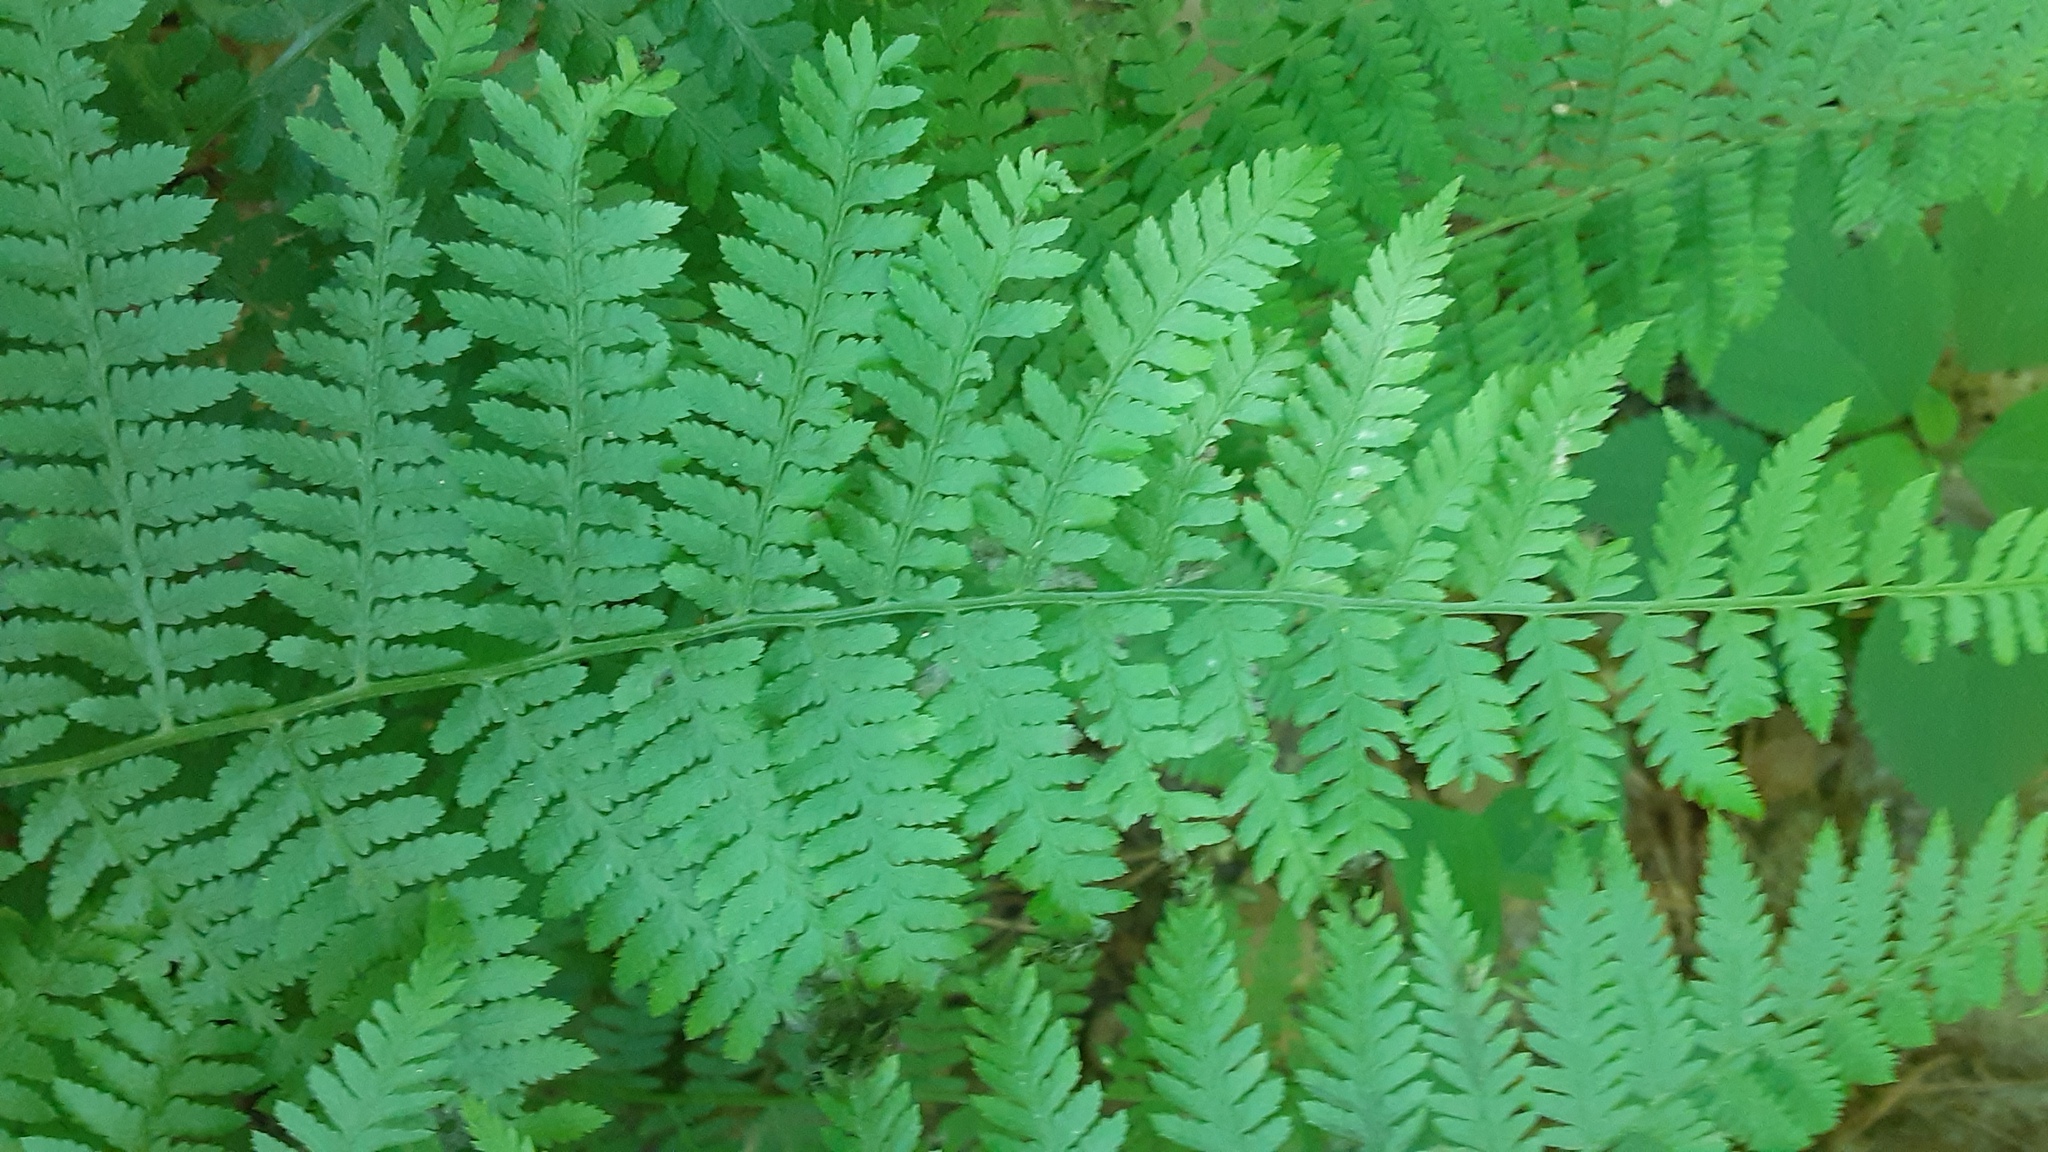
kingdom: Plantae
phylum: Tracheophyta
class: Polypodiopsida
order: Polypodiales
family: Athyriaceae
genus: Athyrium
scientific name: Athyrium angustum
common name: Northern lady fern
